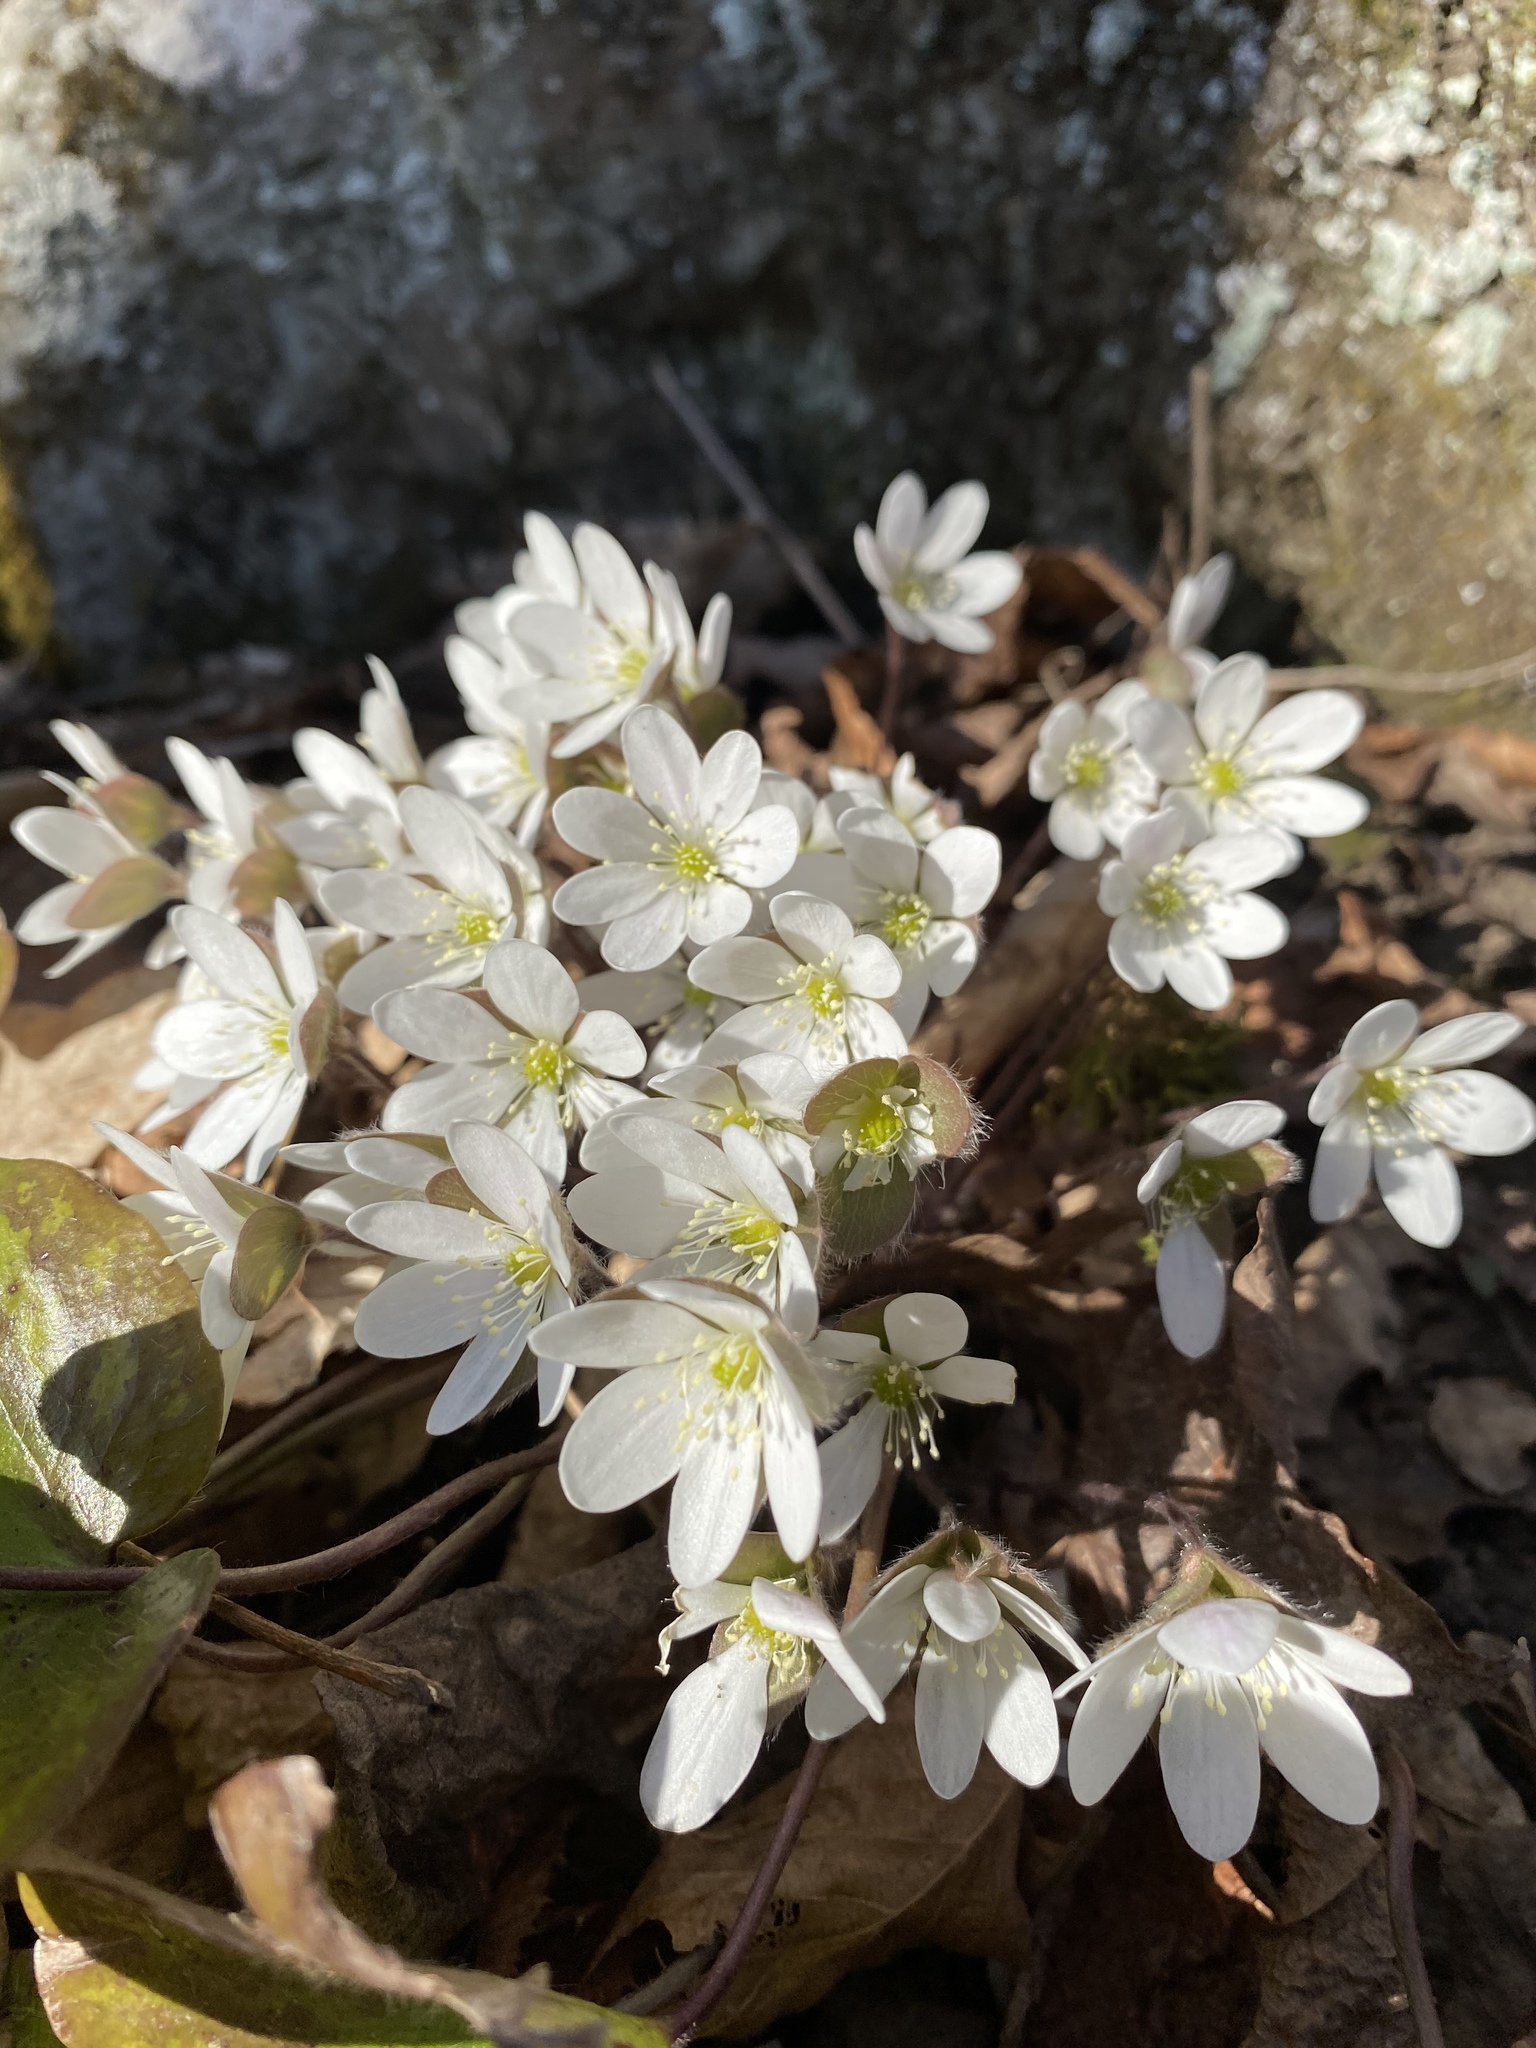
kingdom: Plantae
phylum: Tracheophyta
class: Magnoliopsida
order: Ranunculales
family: Ranunculaceae
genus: Hepatica
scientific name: Hepatica americana
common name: American hepatica
